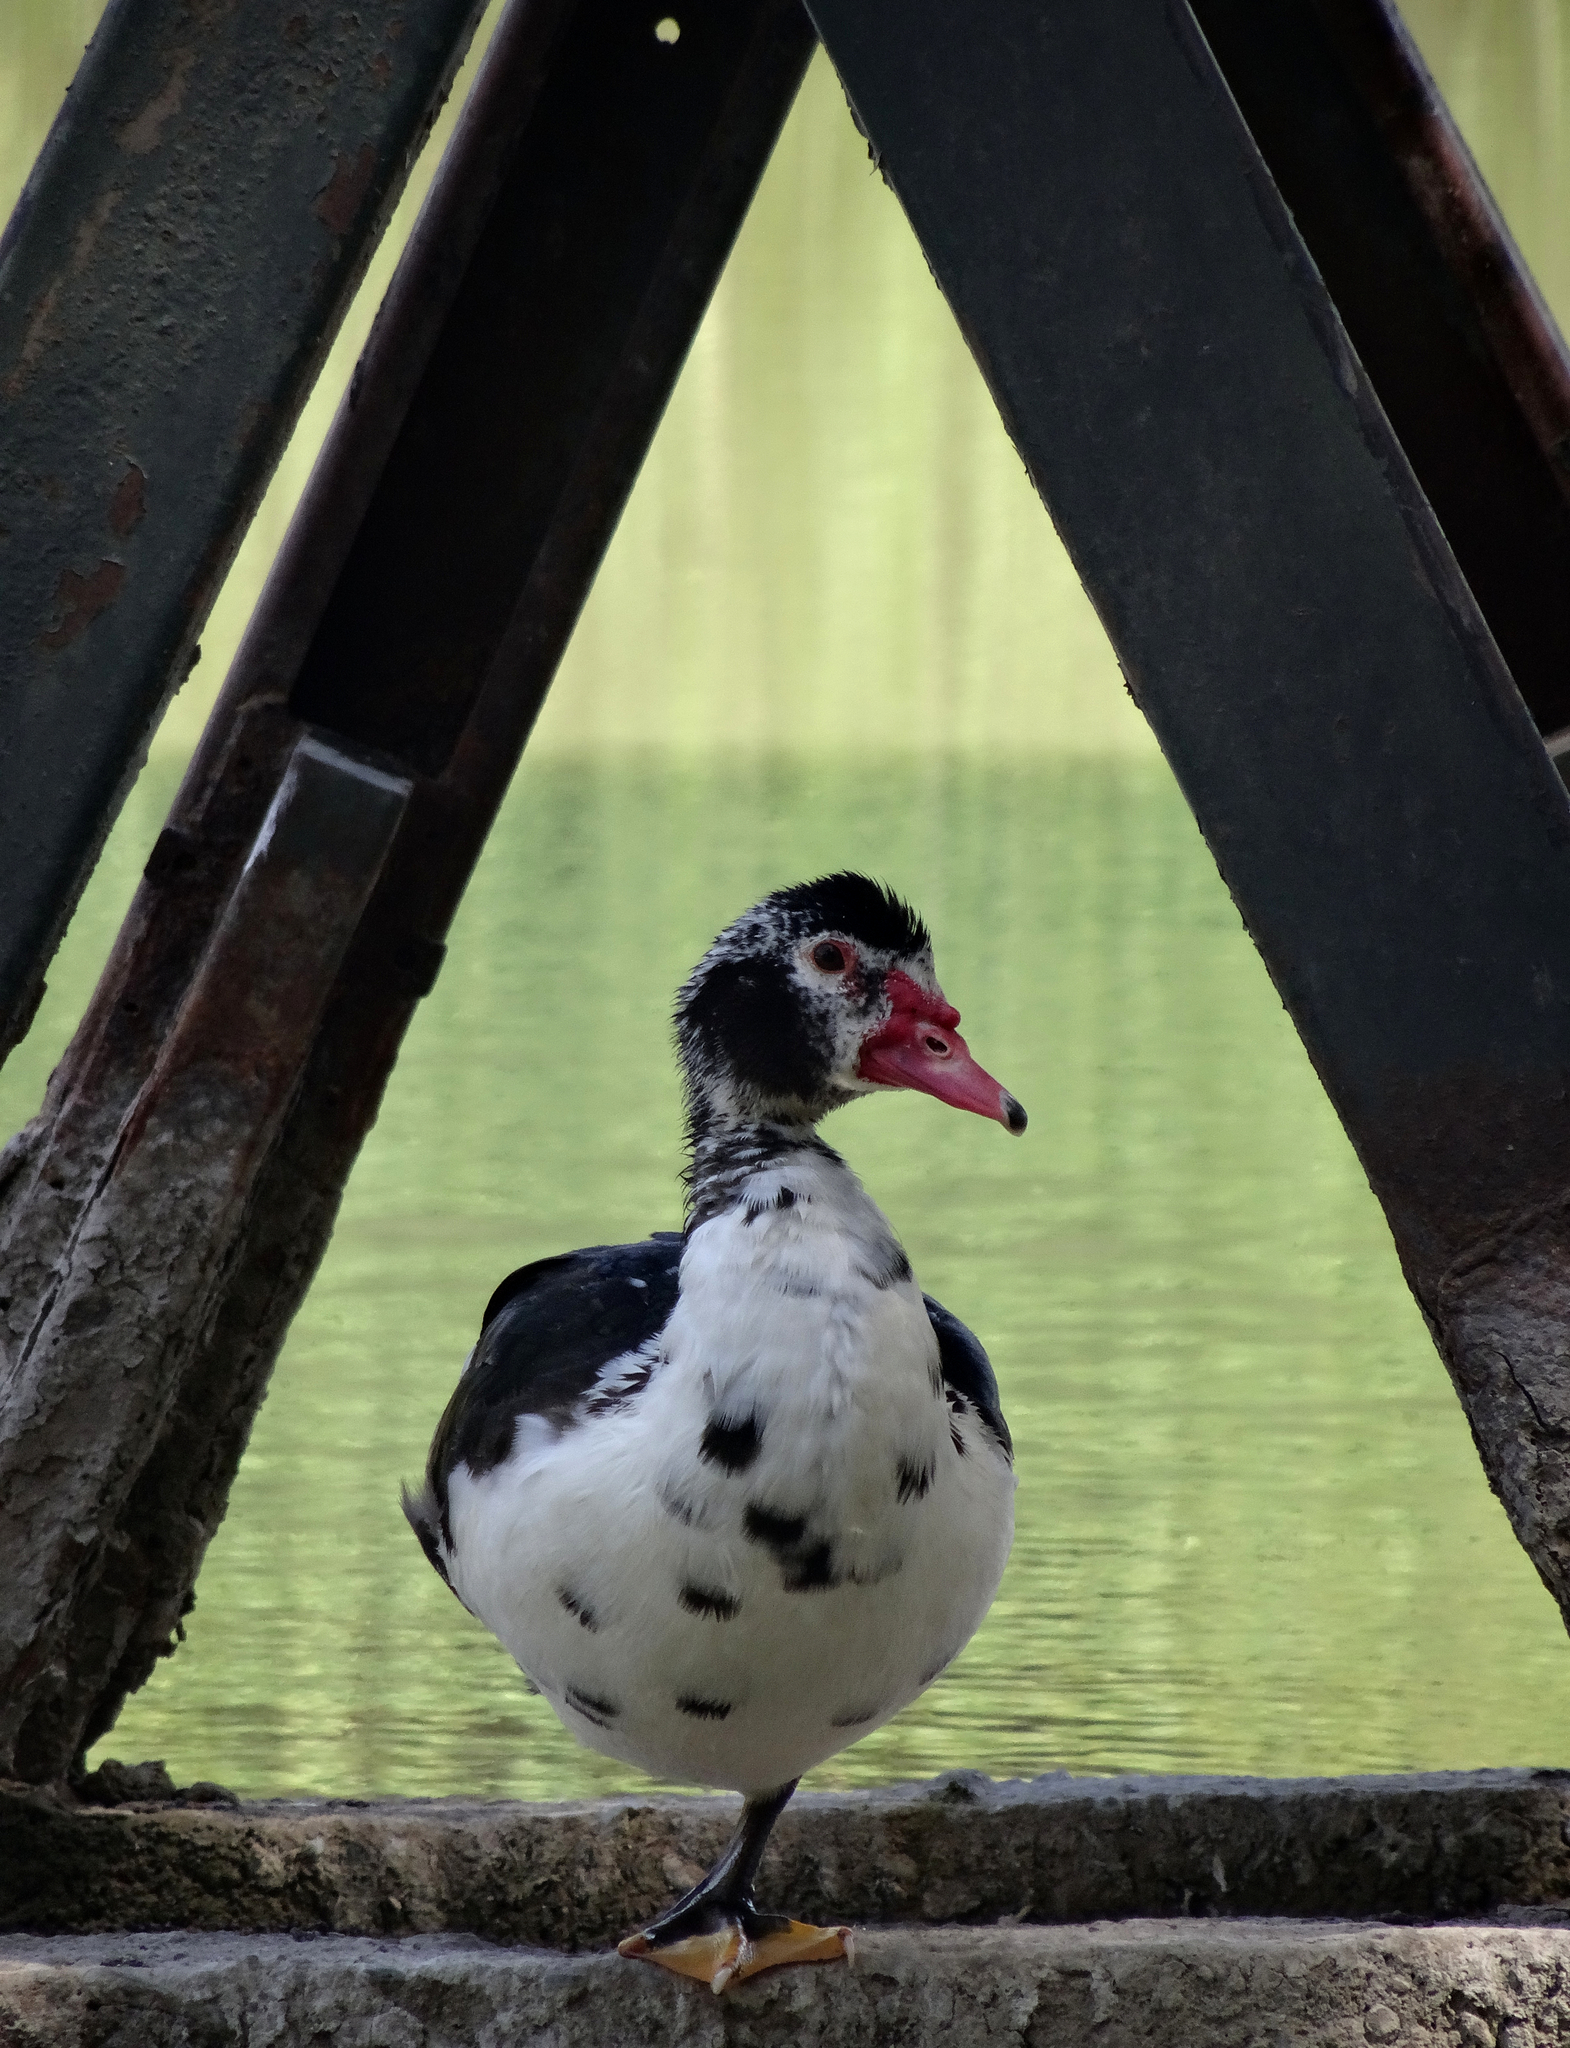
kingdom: Animalia
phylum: Chordata
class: Aves
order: Anseriformes
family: Anatidae
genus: Cairina
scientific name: Cairina moschata
